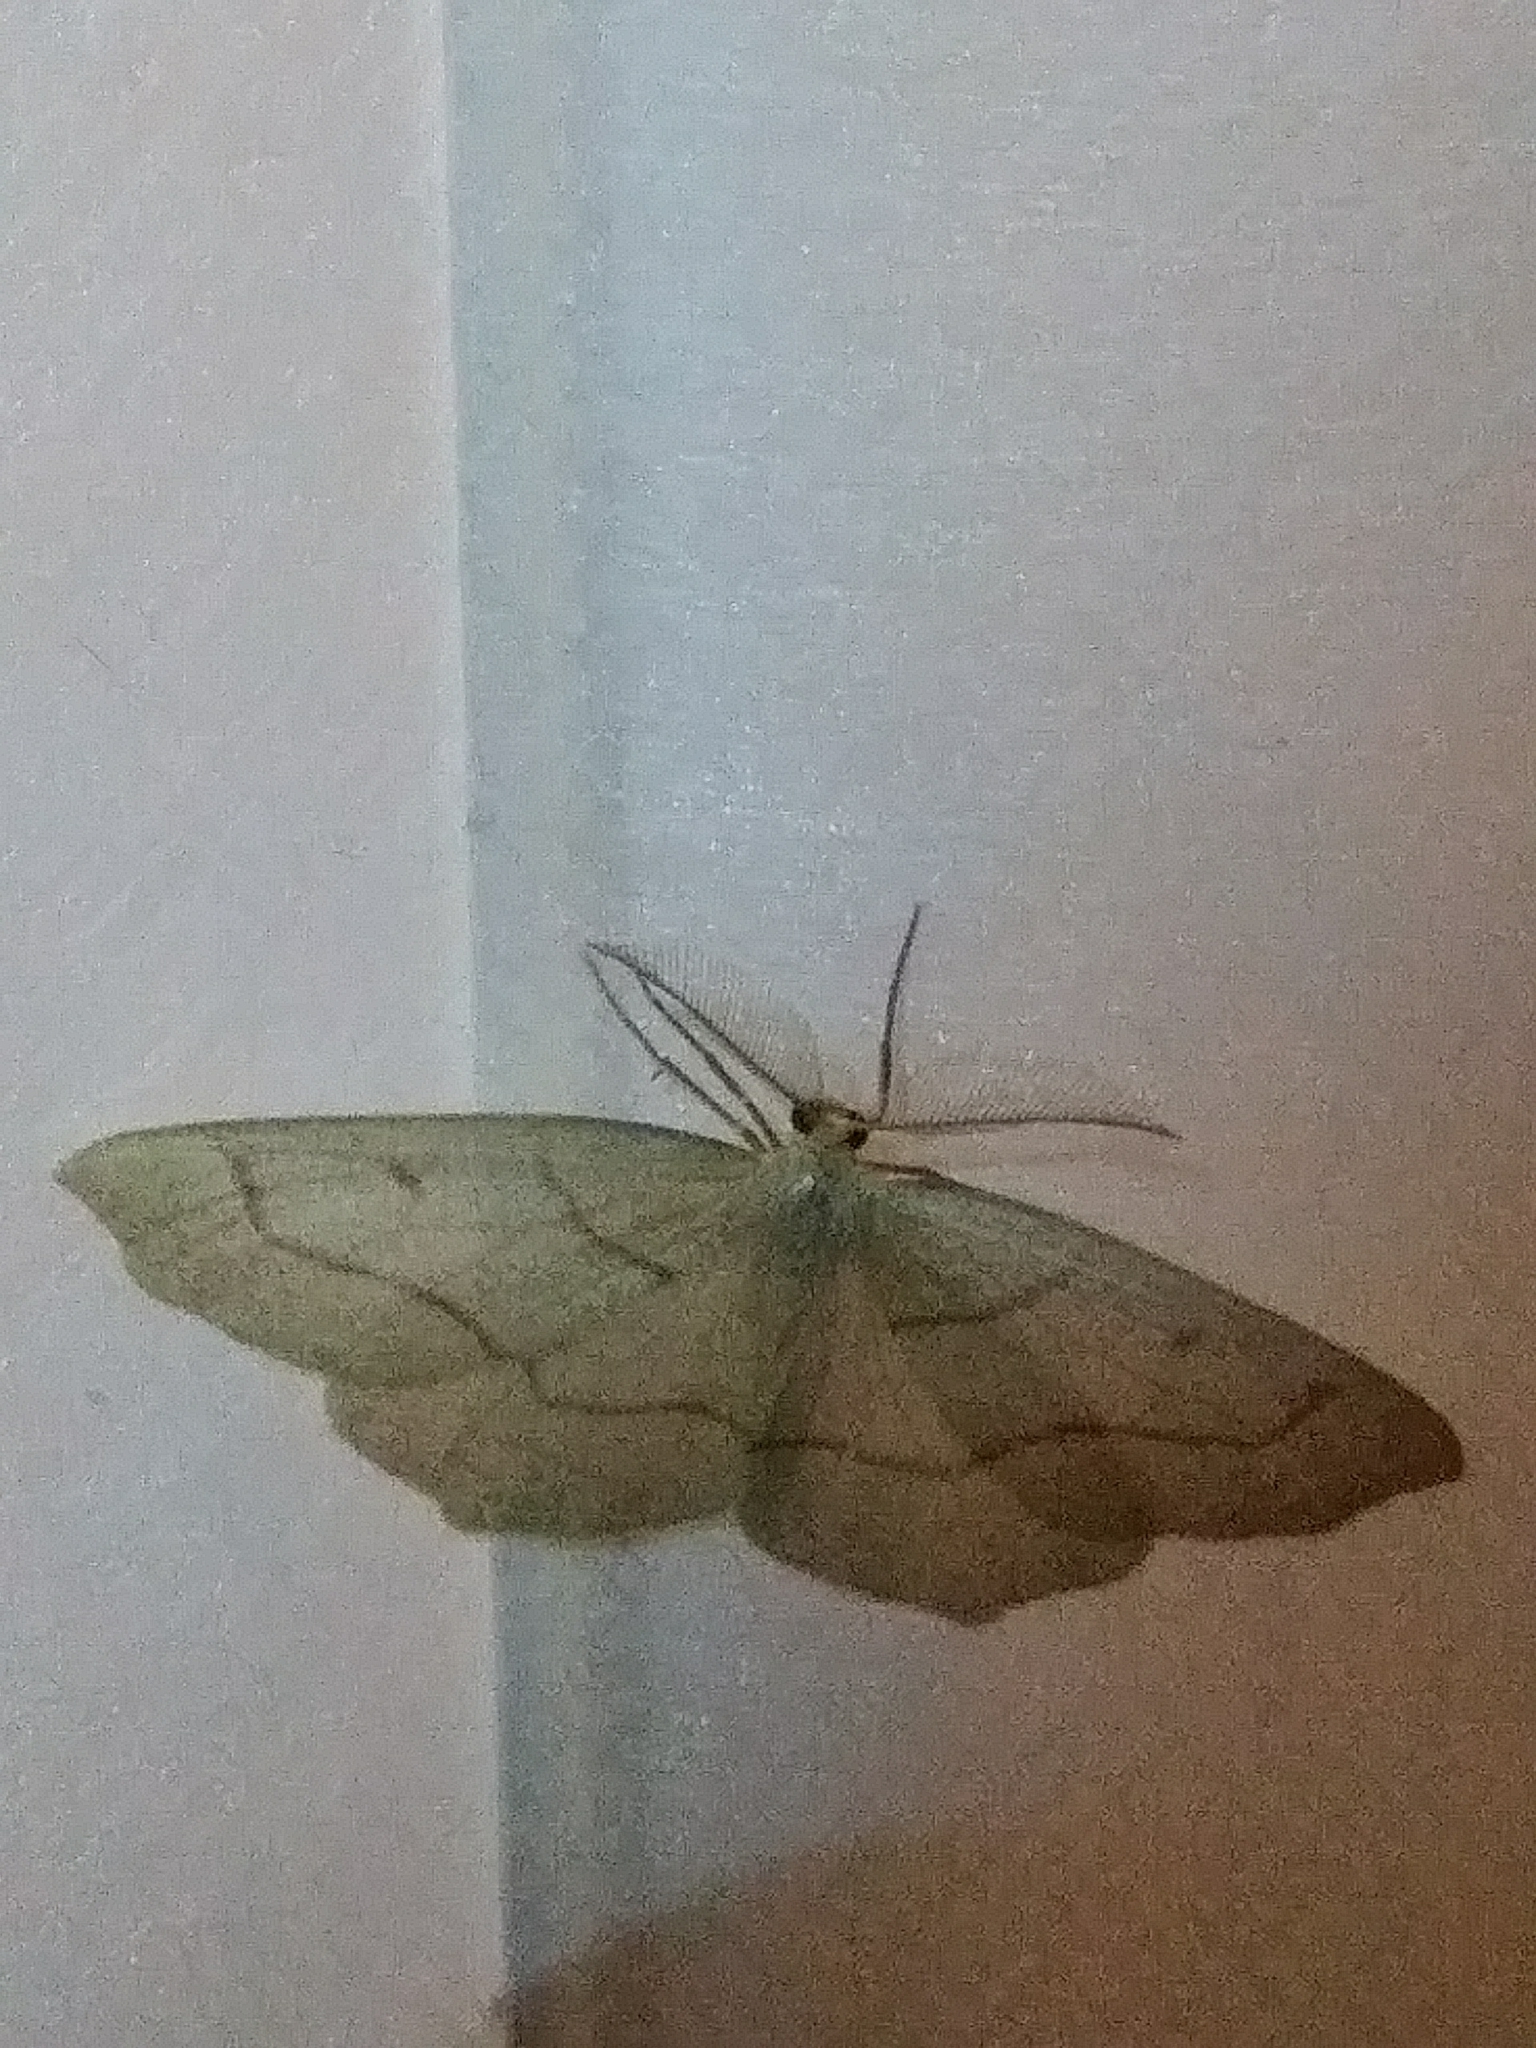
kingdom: Animalia
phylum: Arthropoda
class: Insecta
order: Lepidoptera
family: Geometridae
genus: Lambdina
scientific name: Lambdina fiscellaria
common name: Hemlock looper
